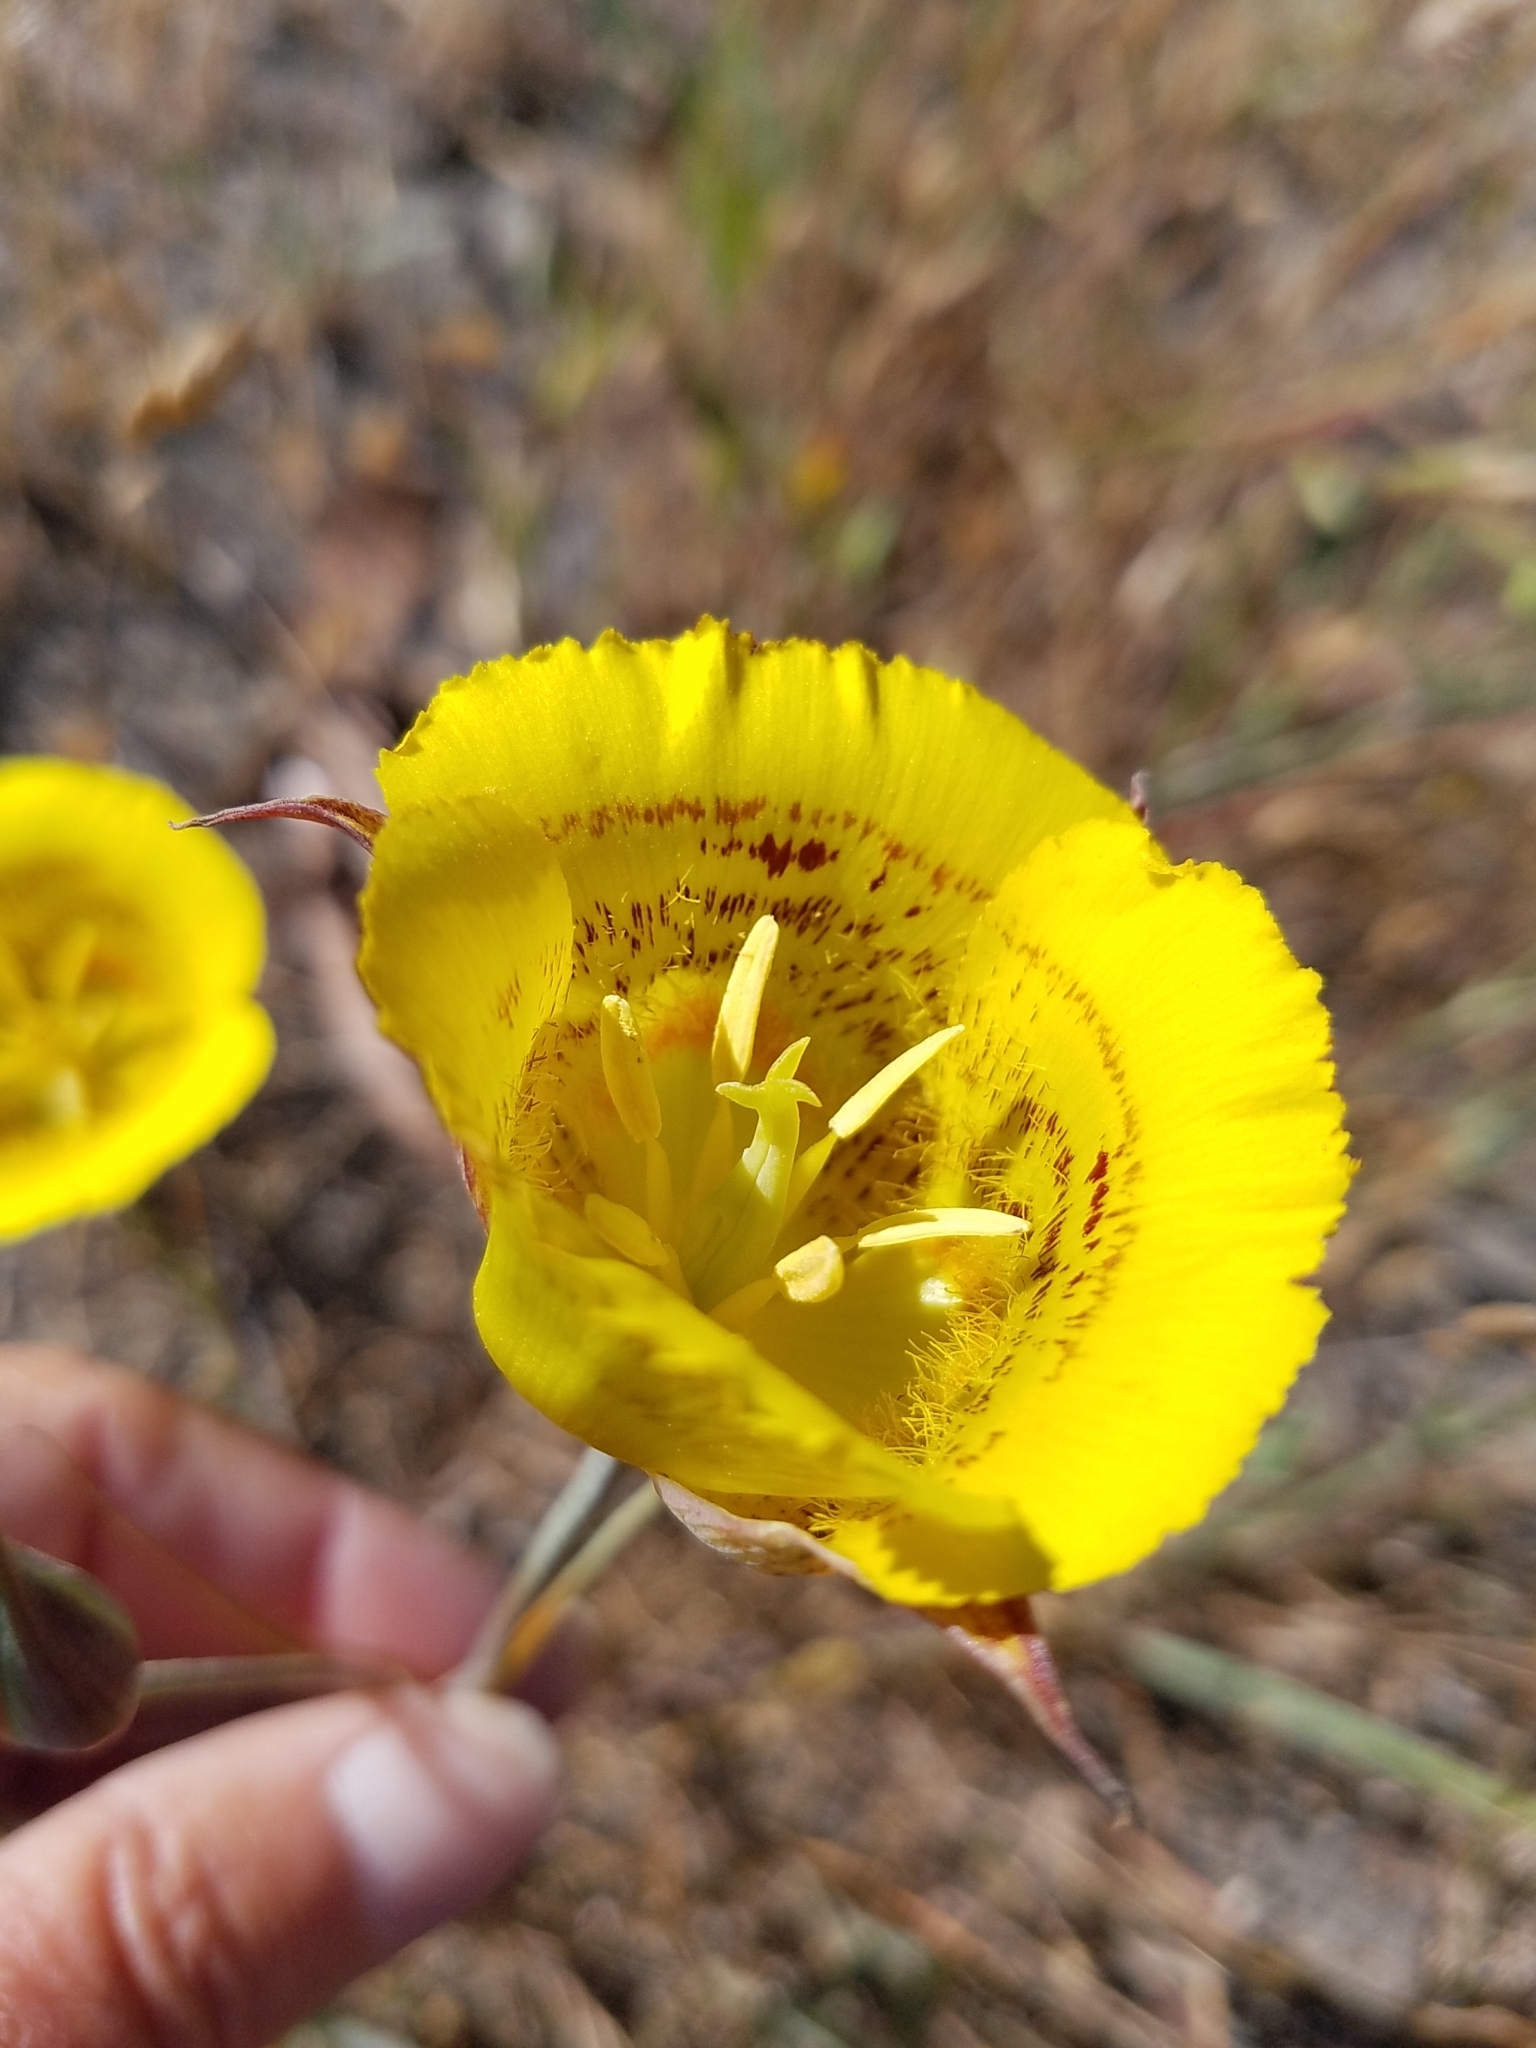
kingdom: Plantae
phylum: Tracheophyta
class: Liliopsida
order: Liliales
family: Liliaceae
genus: Calochortus
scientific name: Calochortus luteus
